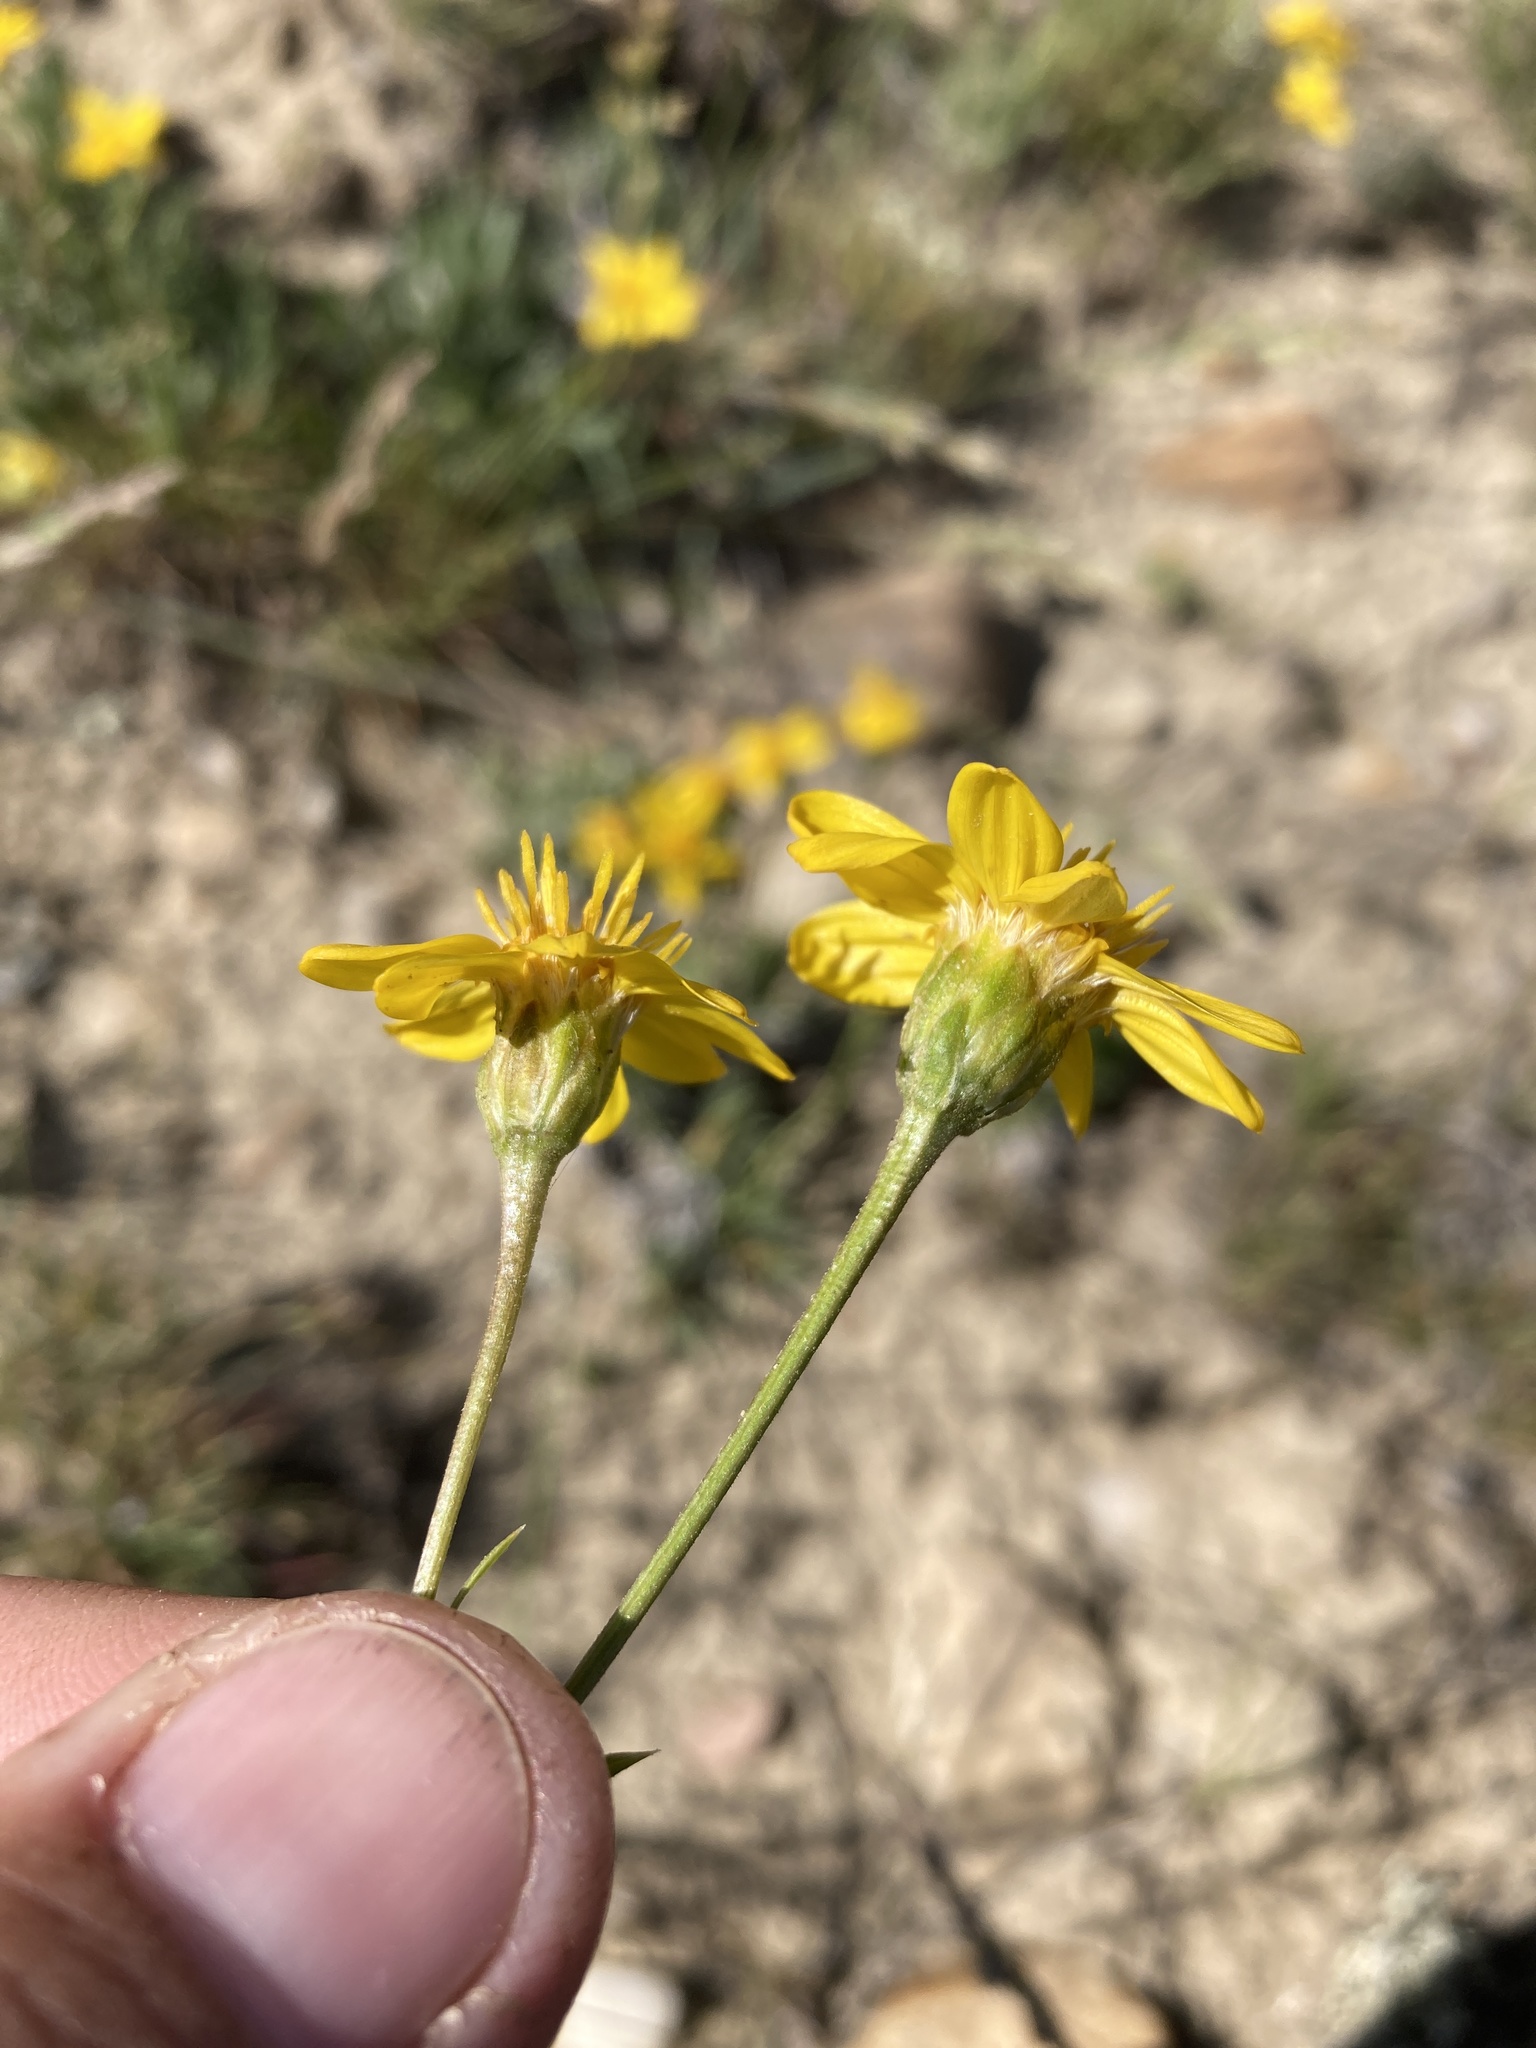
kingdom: Plantae
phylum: Tracheophyta
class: Magnoliopsida
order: Asterales
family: Asteraceae
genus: Stenotus
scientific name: Stenotus acaulis
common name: Stemless goldenweed
